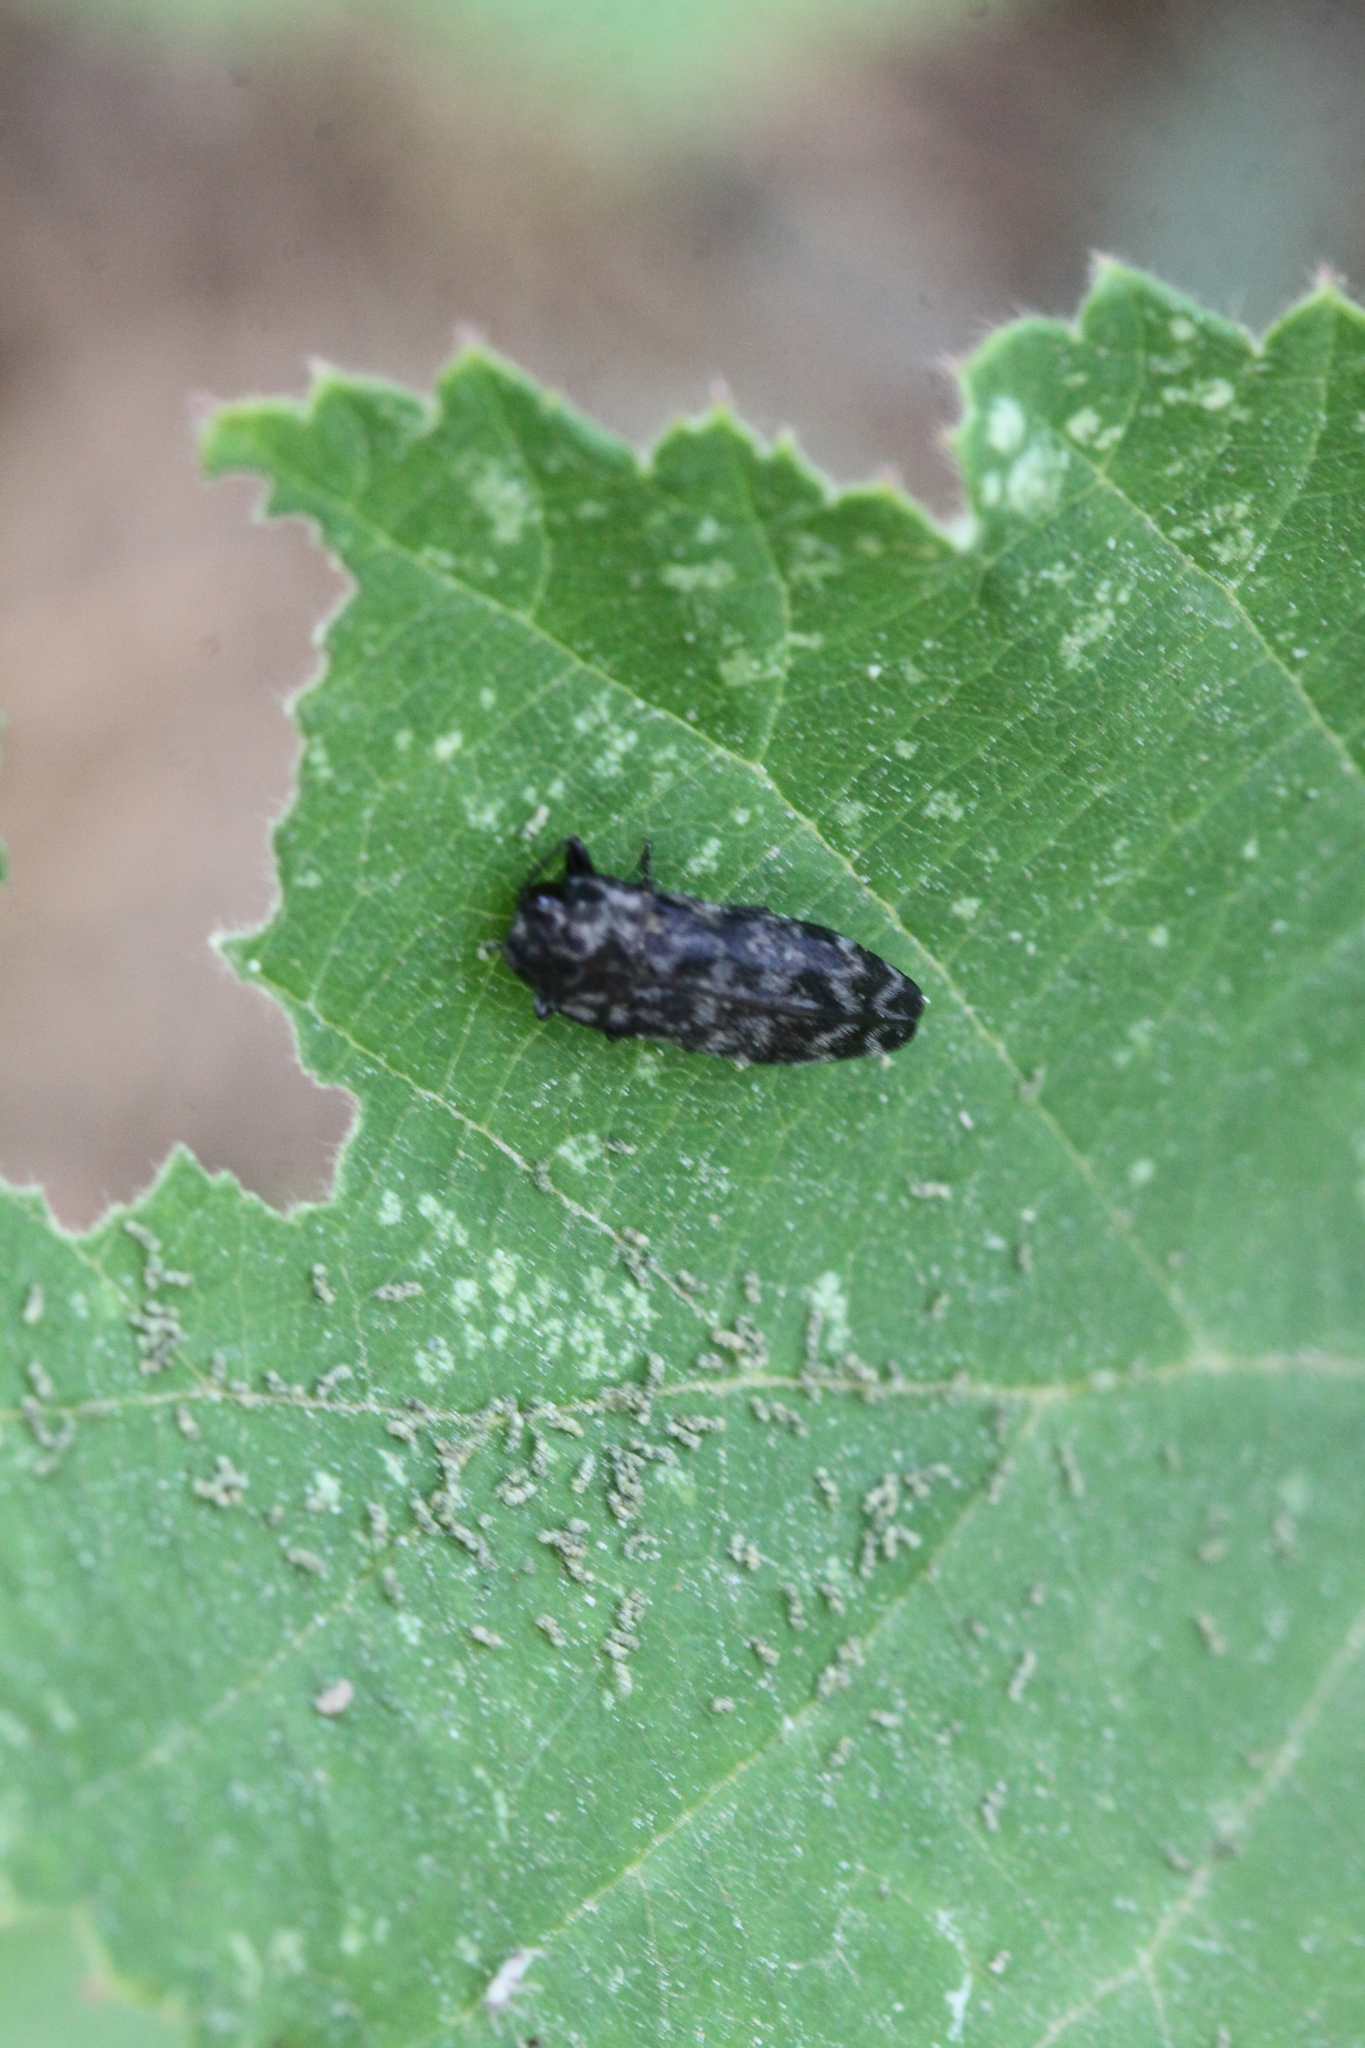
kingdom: Animalia
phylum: Arthropoda
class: Insecta
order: Coleoptera
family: Buprestidae
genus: Coraebus
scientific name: Coraebus rubi
